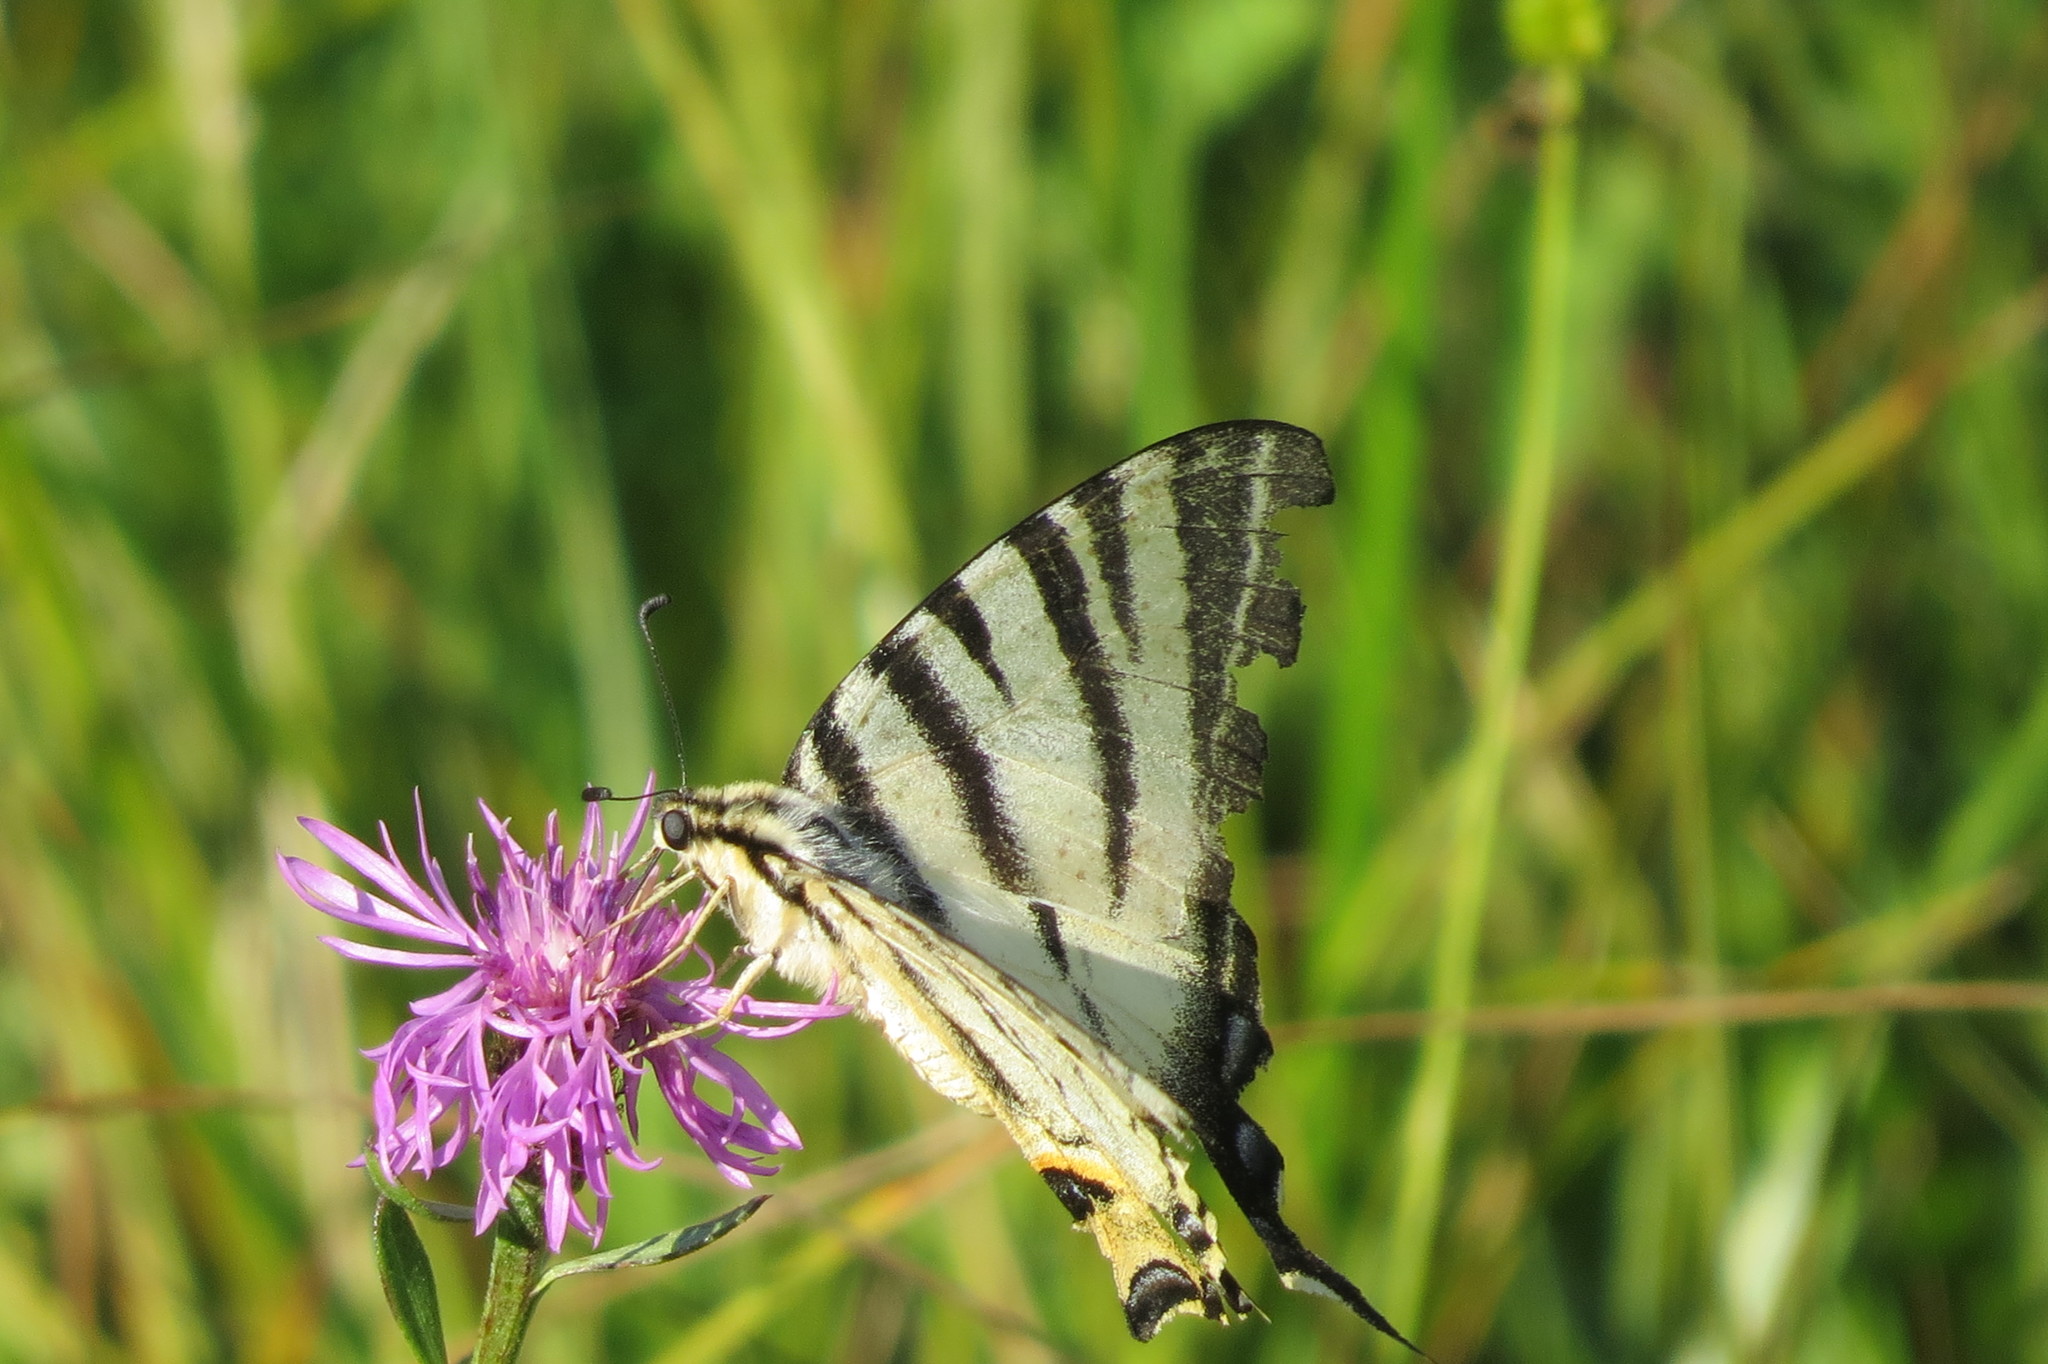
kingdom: Animalia
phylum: Arthropoda
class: Insecta
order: Lepidoptera
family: Papilionidae
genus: Iphiclides
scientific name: Iphiclides podalirius
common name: Scarce swallowtail
